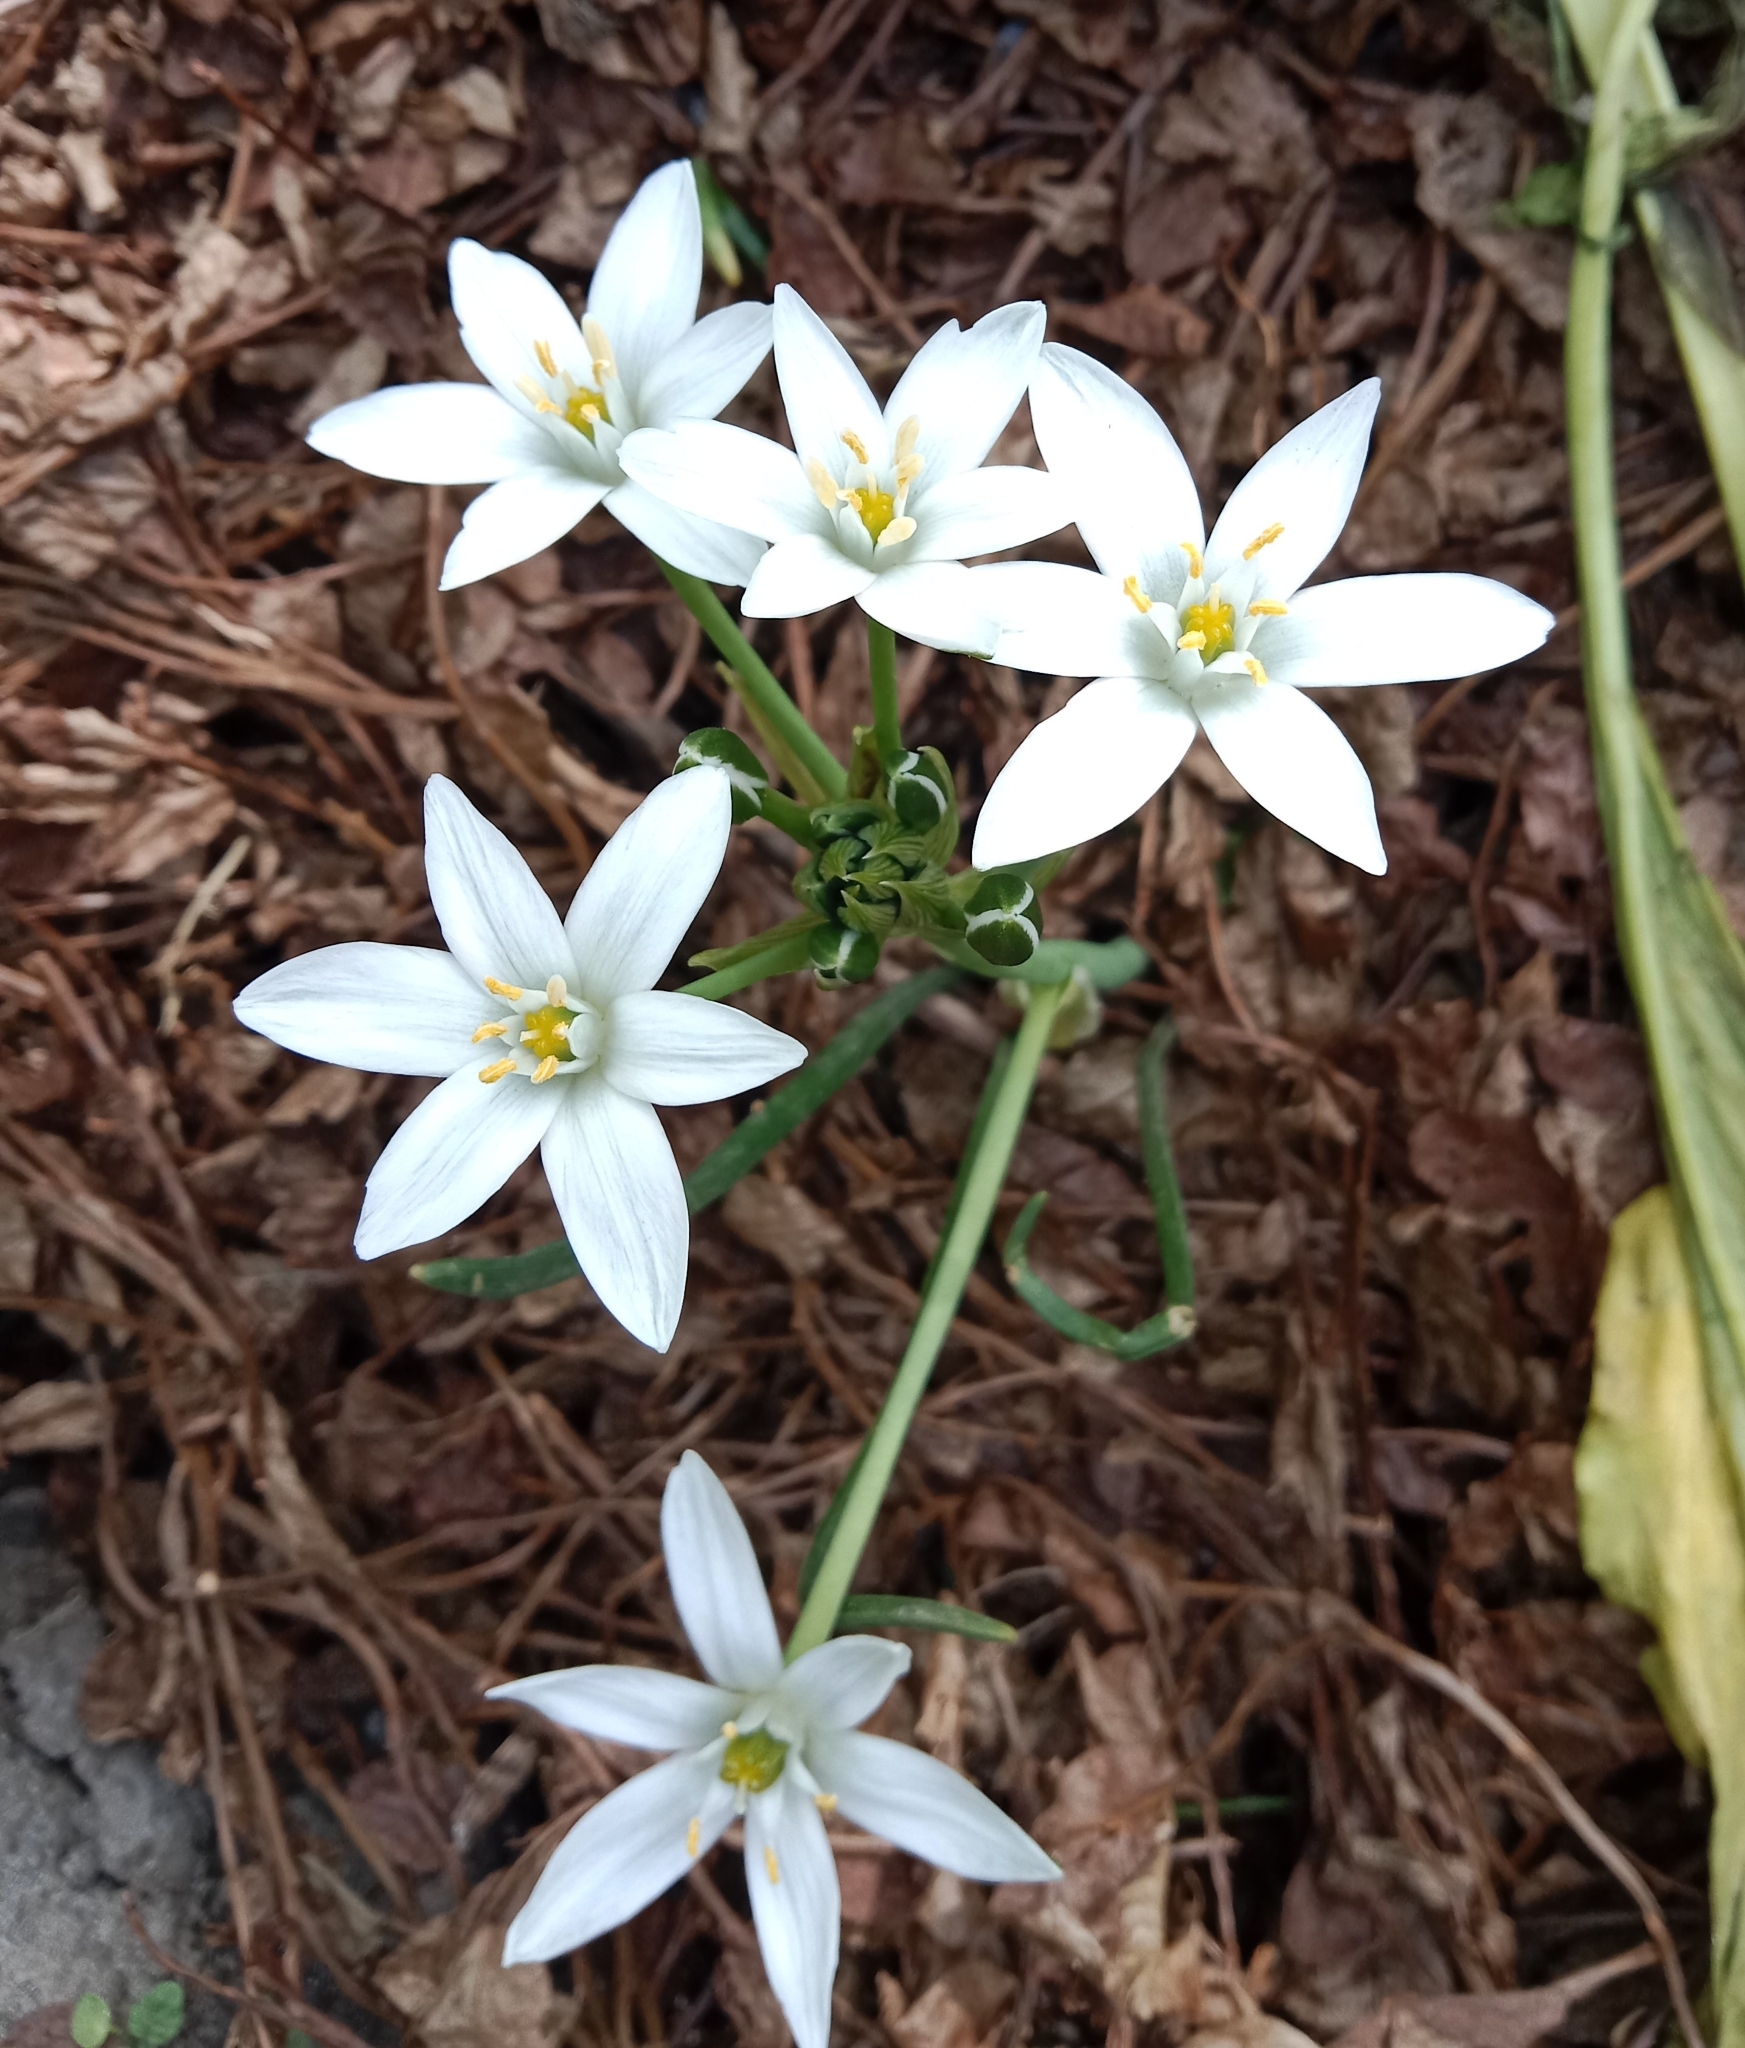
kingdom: Plantae
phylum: Tracheophyta
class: Liliopsida
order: Asparagales
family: Asparagaceae
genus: Ornithogalum
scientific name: Ornithogalum umbellatum
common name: Garden star-of-bethlehem
